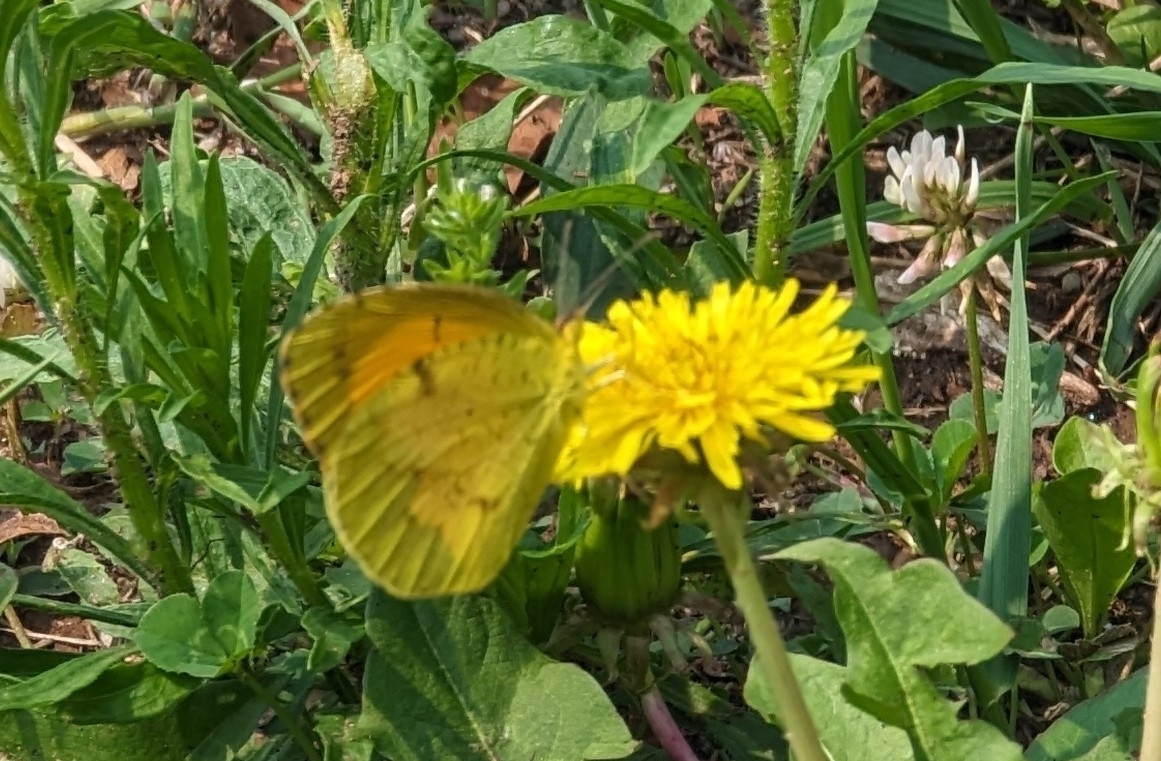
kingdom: Animalia
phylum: Arthropoda
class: Insecta
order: Lepidoptera
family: Pieridae
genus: Abaeis
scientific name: Abaeis nicippe
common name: Sleepy orange
